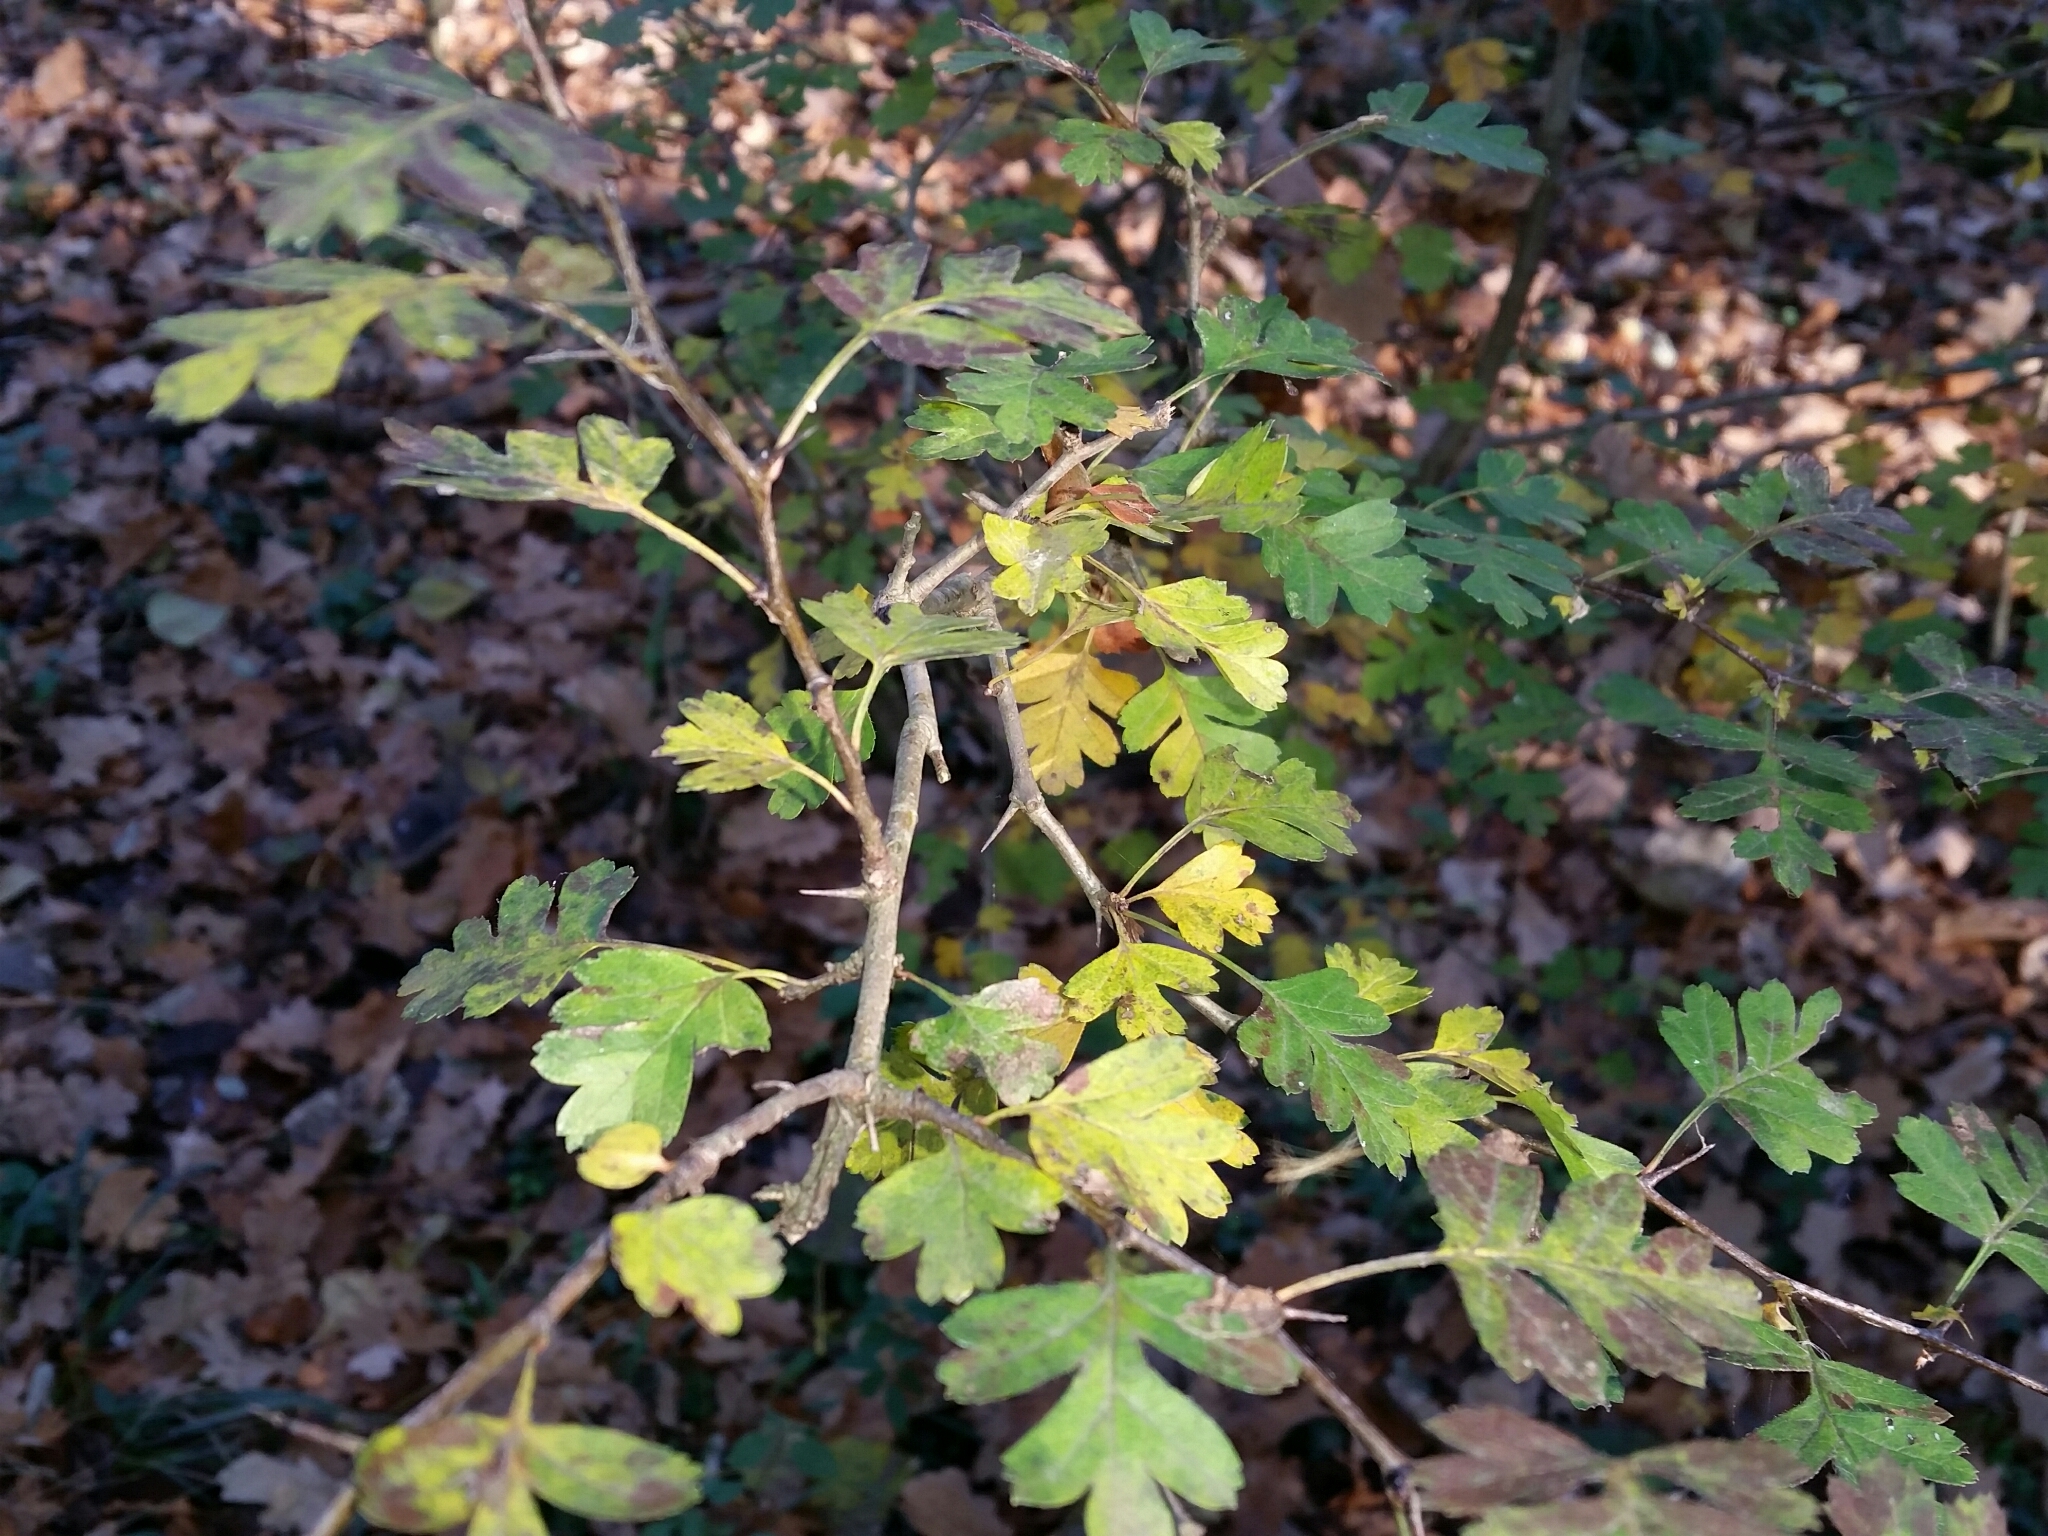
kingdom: Plantae
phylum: Tracheophyta
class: Magnoliopsida
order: Rosales
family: Rosaceae
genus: Crataegus
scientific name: Crataegus monogyna
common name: Hawthorn
